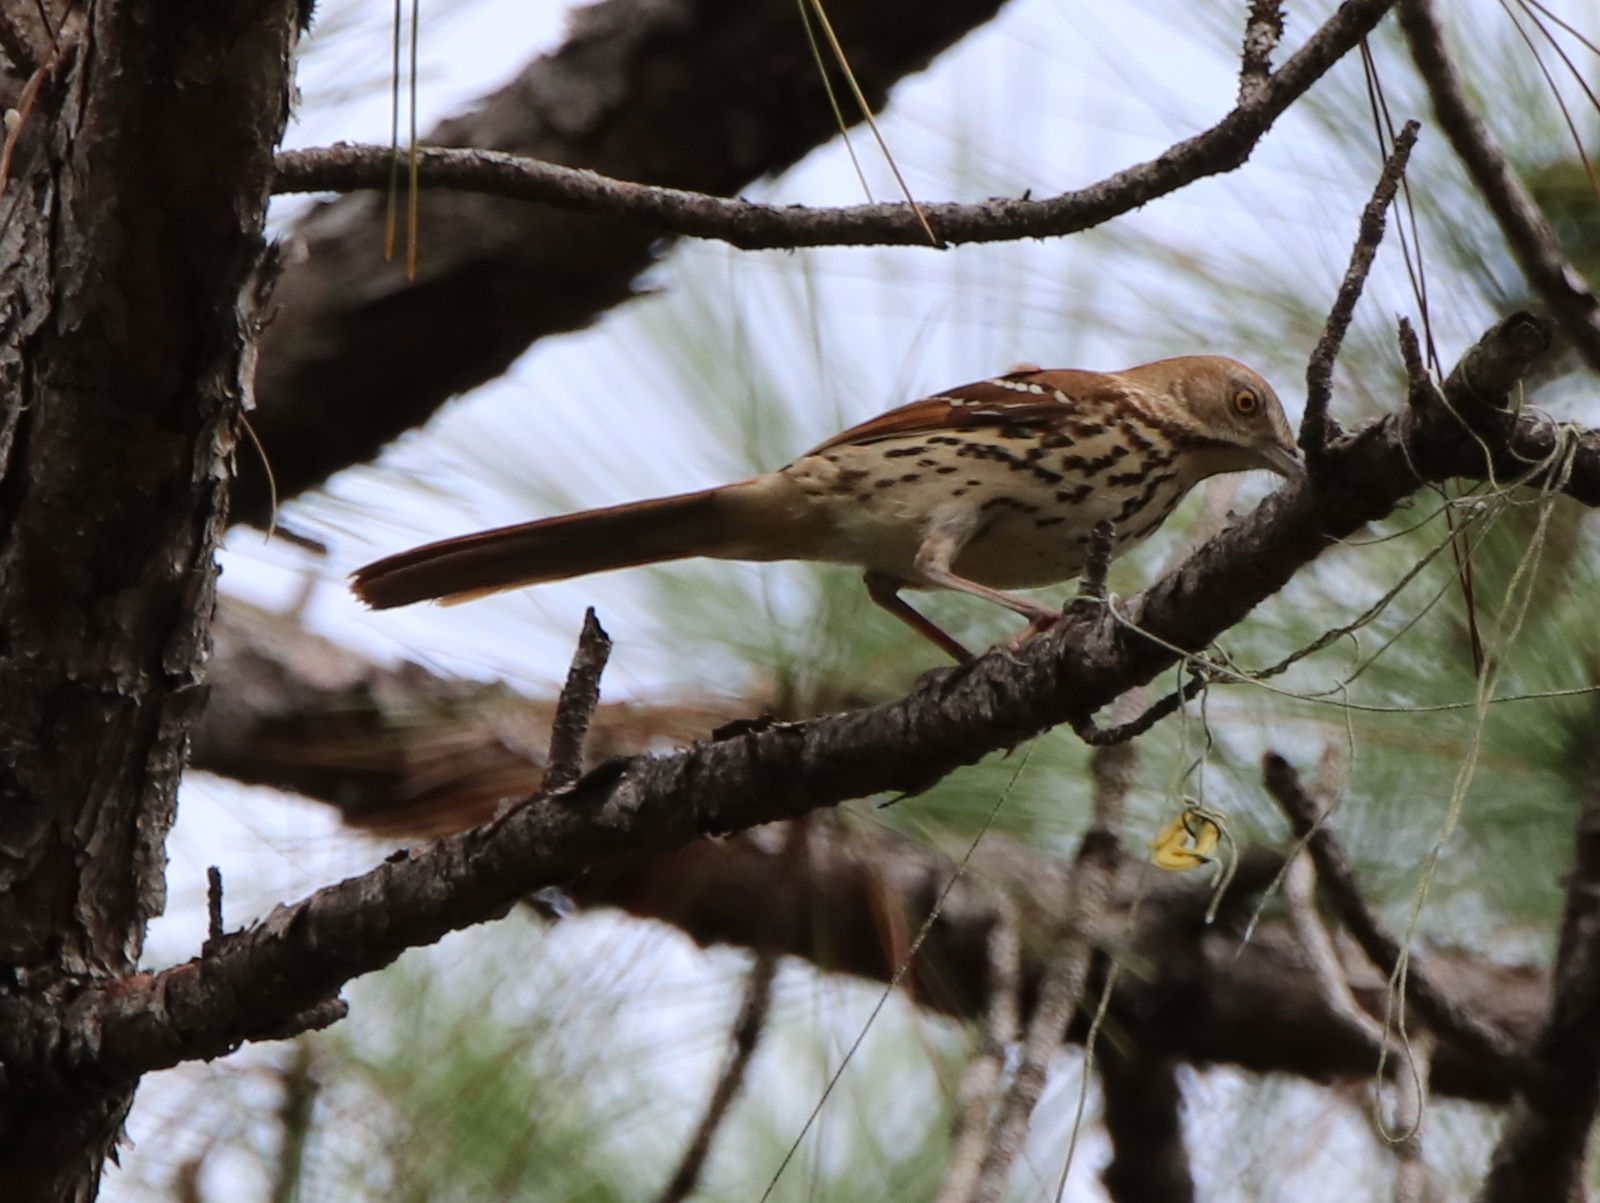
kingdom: Animalia
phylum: Chordata
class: Aves
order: Passeriformes
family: Mimidae
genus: Toxostoma
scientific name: Toxostoma rufum
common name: Brown thrasher
